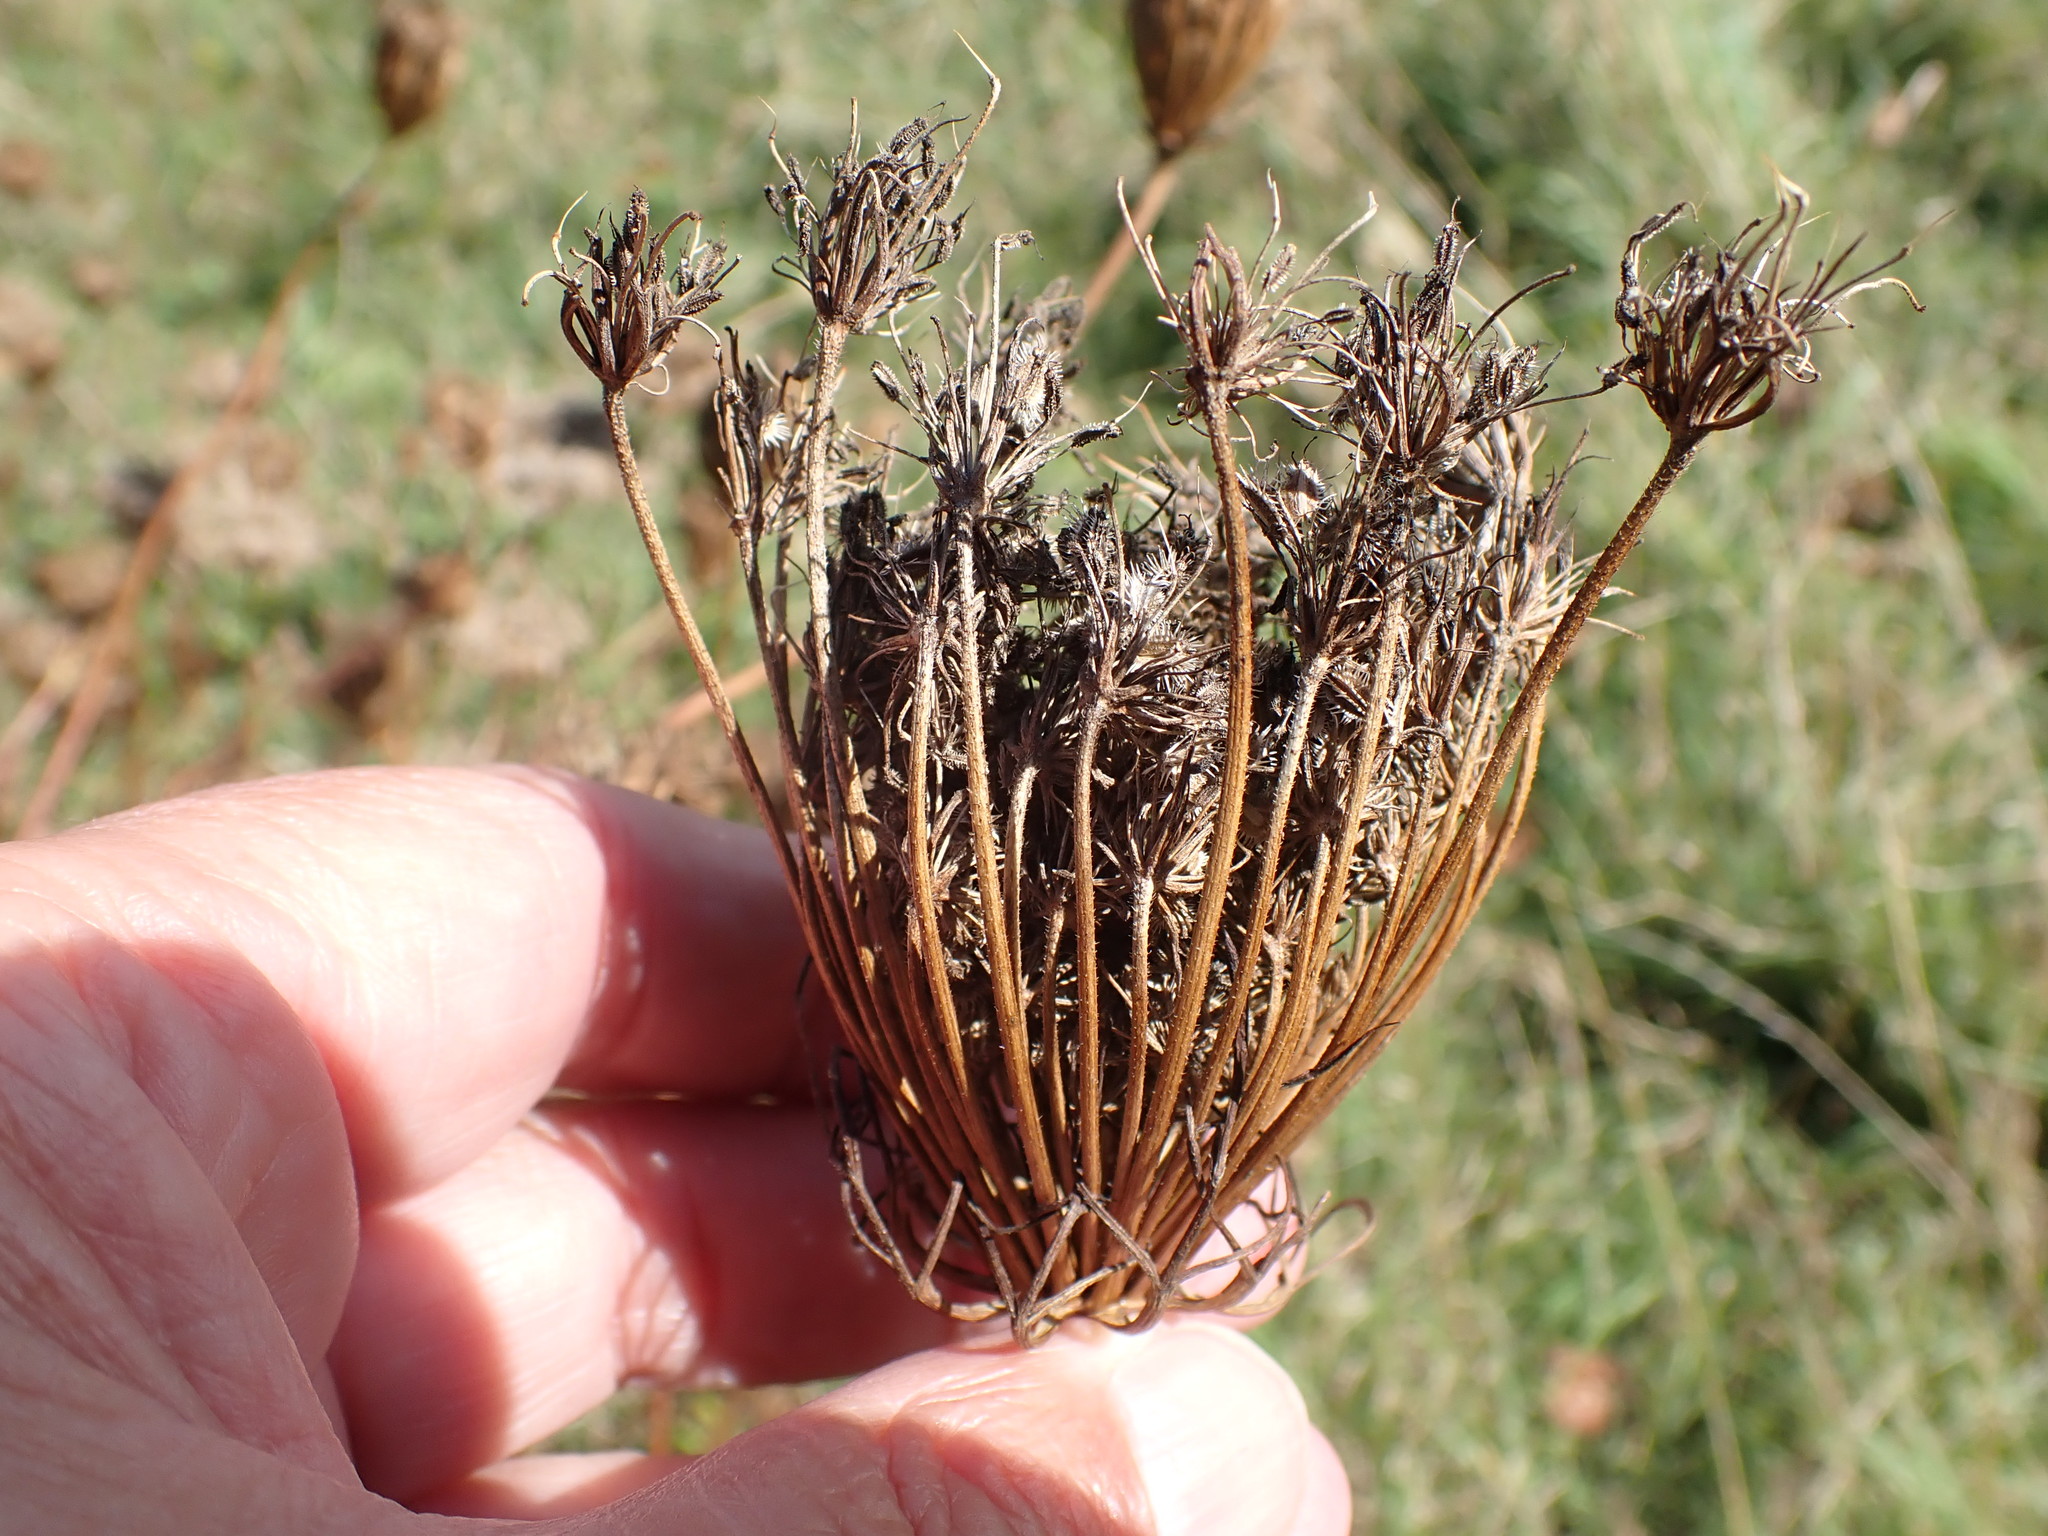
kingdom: Plantae
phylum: Tracheophyta
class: Magnoliopsida
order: Apiales
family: Apiaceae
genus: Daucus
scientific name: Daucus carota
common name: Wild carrot
